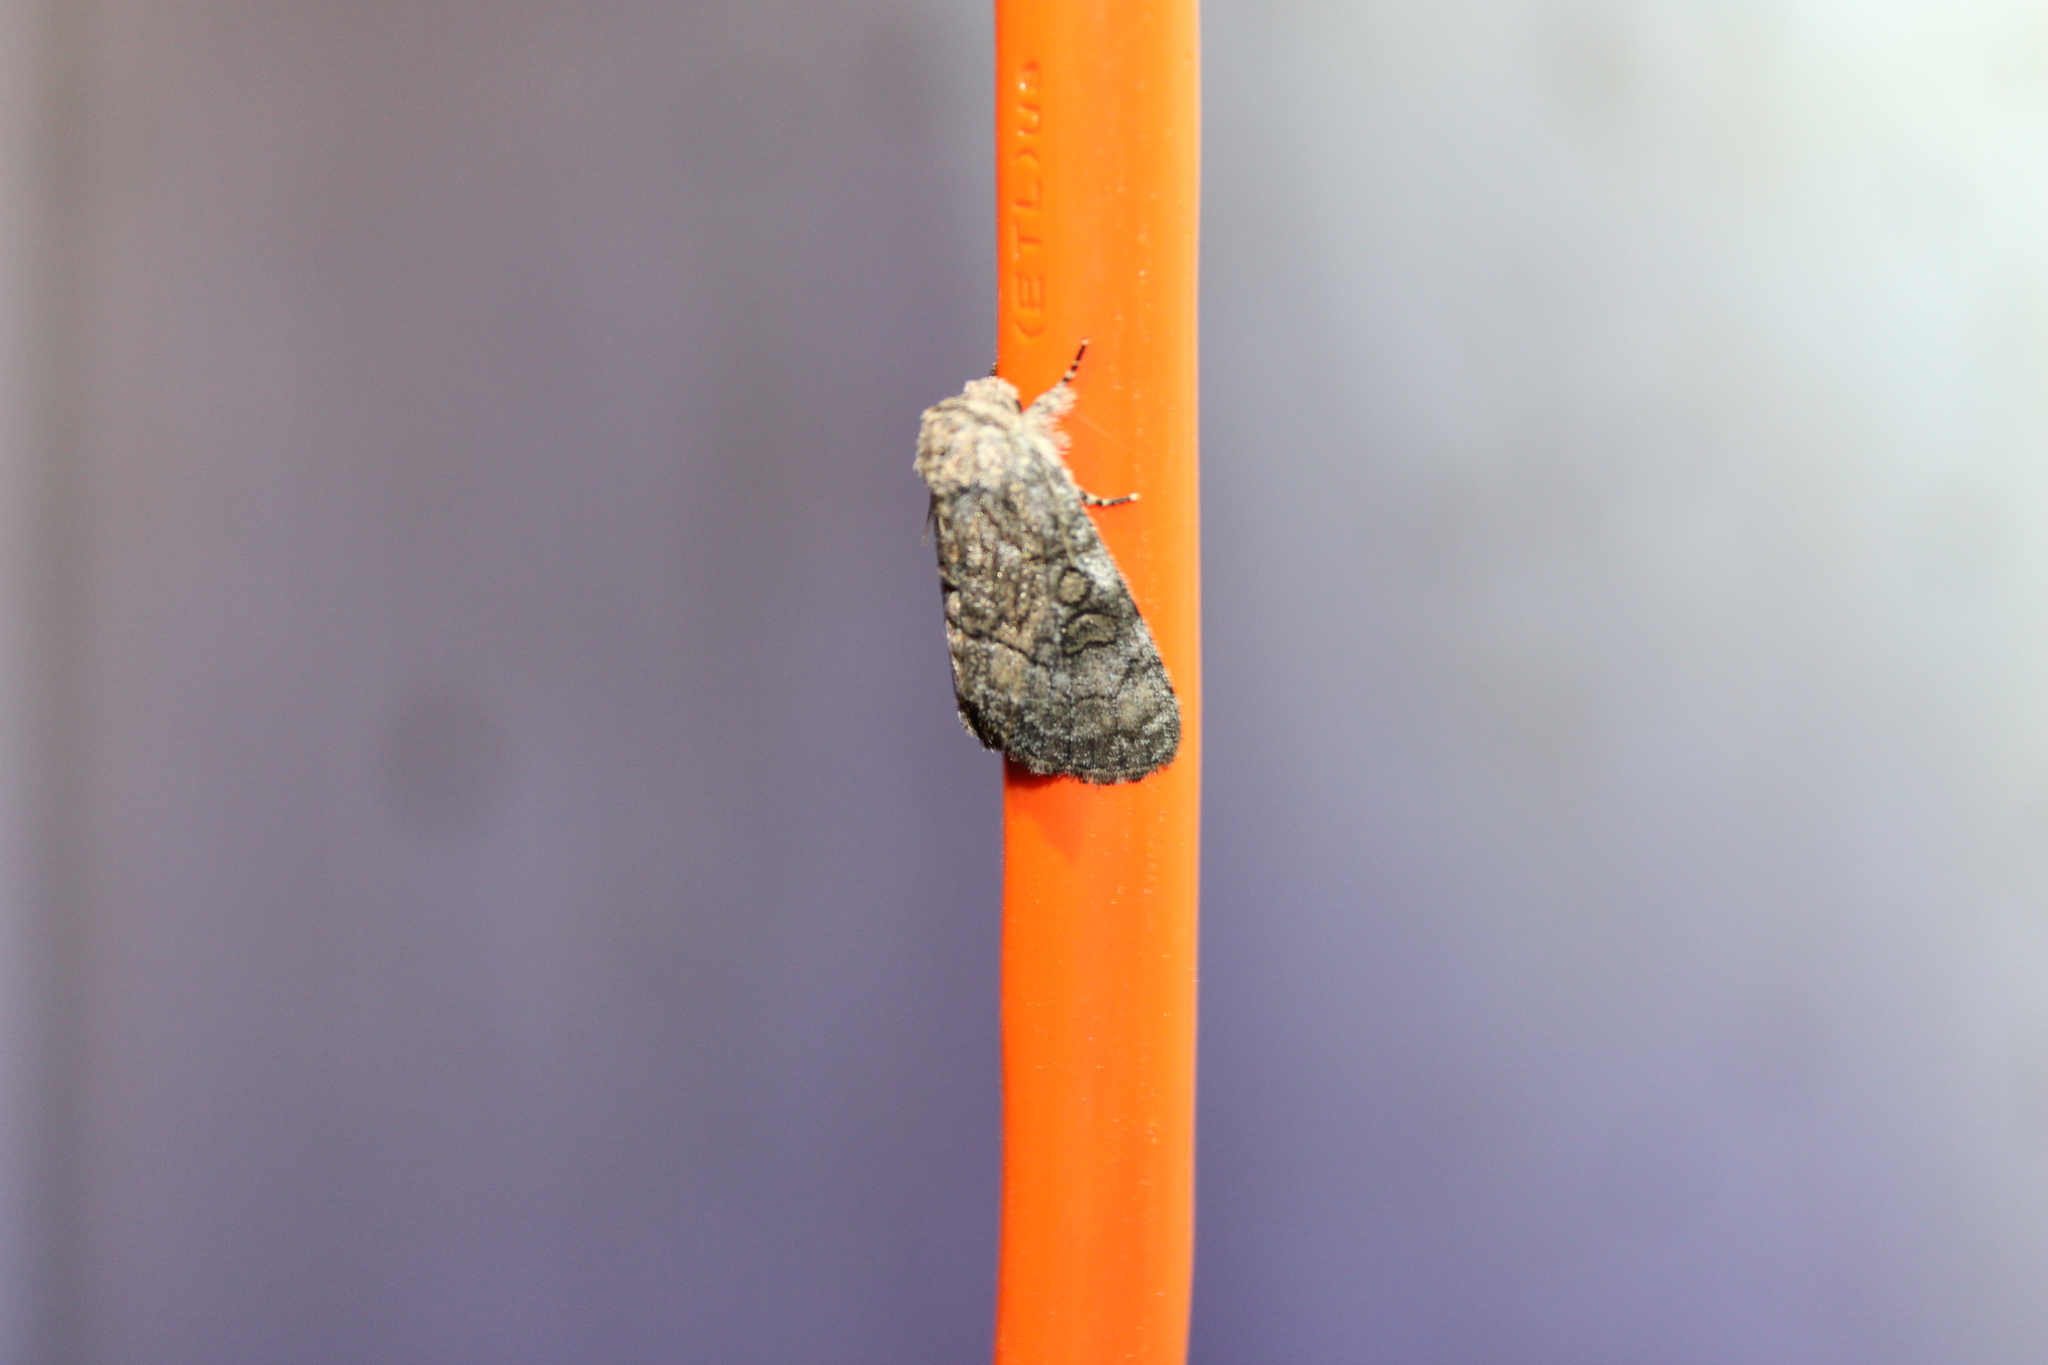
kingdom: Animalia
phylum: Arthropoda
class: Insecta
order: Lepidoptera
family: Noctuidae
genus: Raphia
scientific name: Raphia frater
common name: Brother
